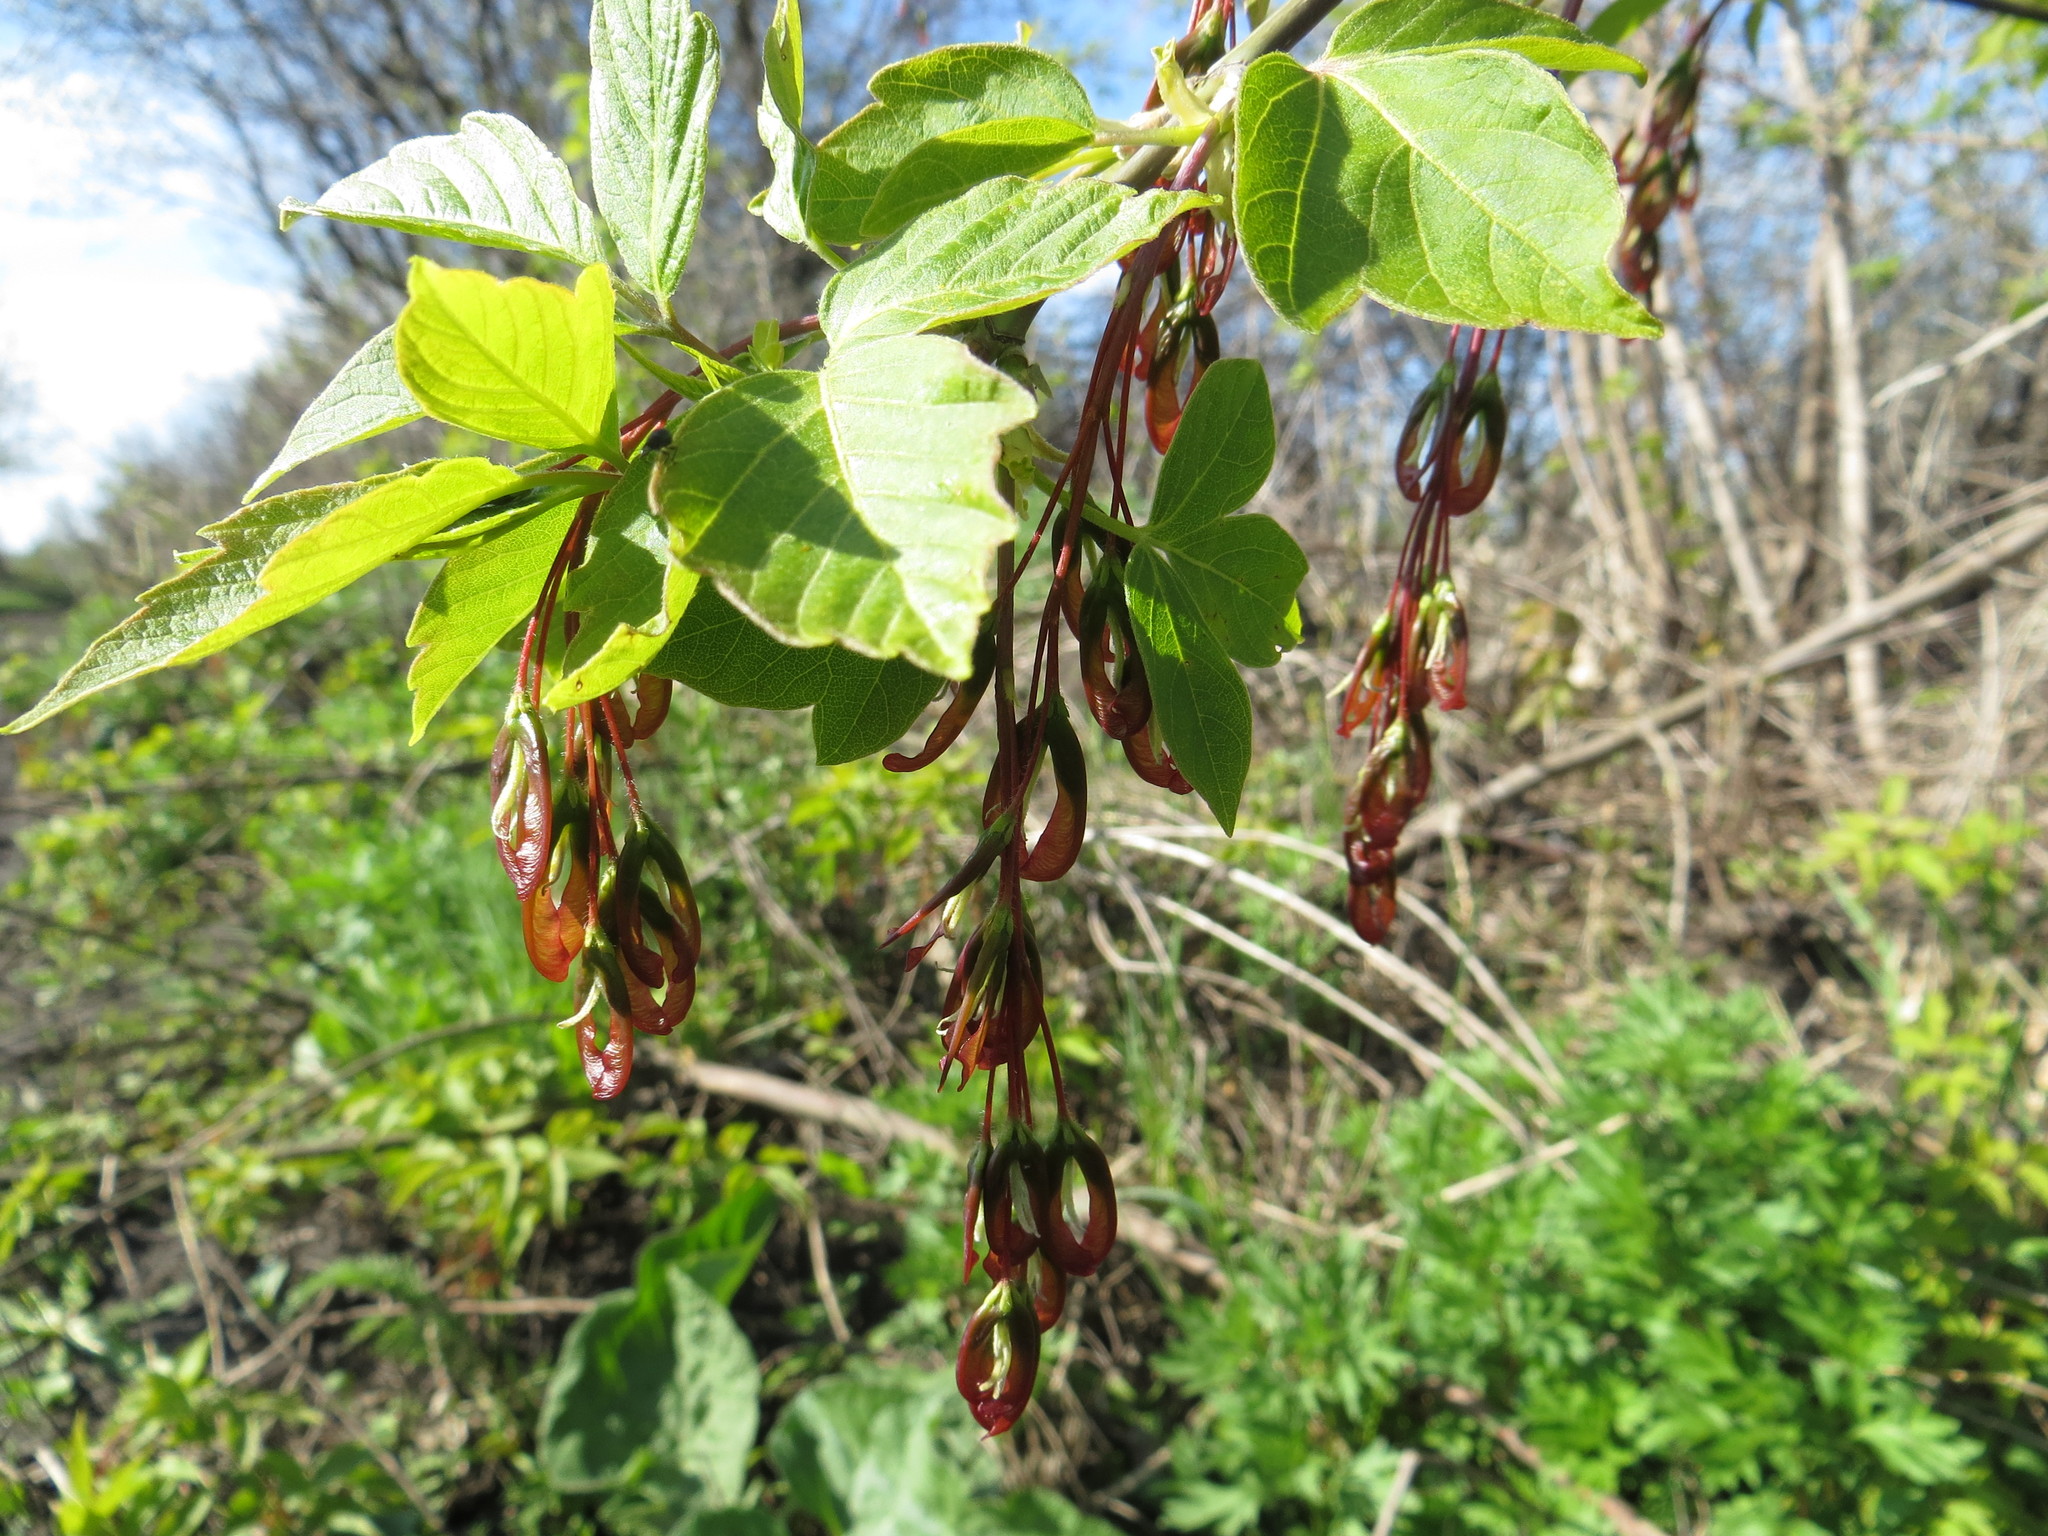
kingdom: Plantae
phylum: Tracheophyta
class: Magnoliopsida
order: Sapindales
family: Sapindaceae
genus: Acer
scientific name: Acer negundo
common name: Ashleaf maple
